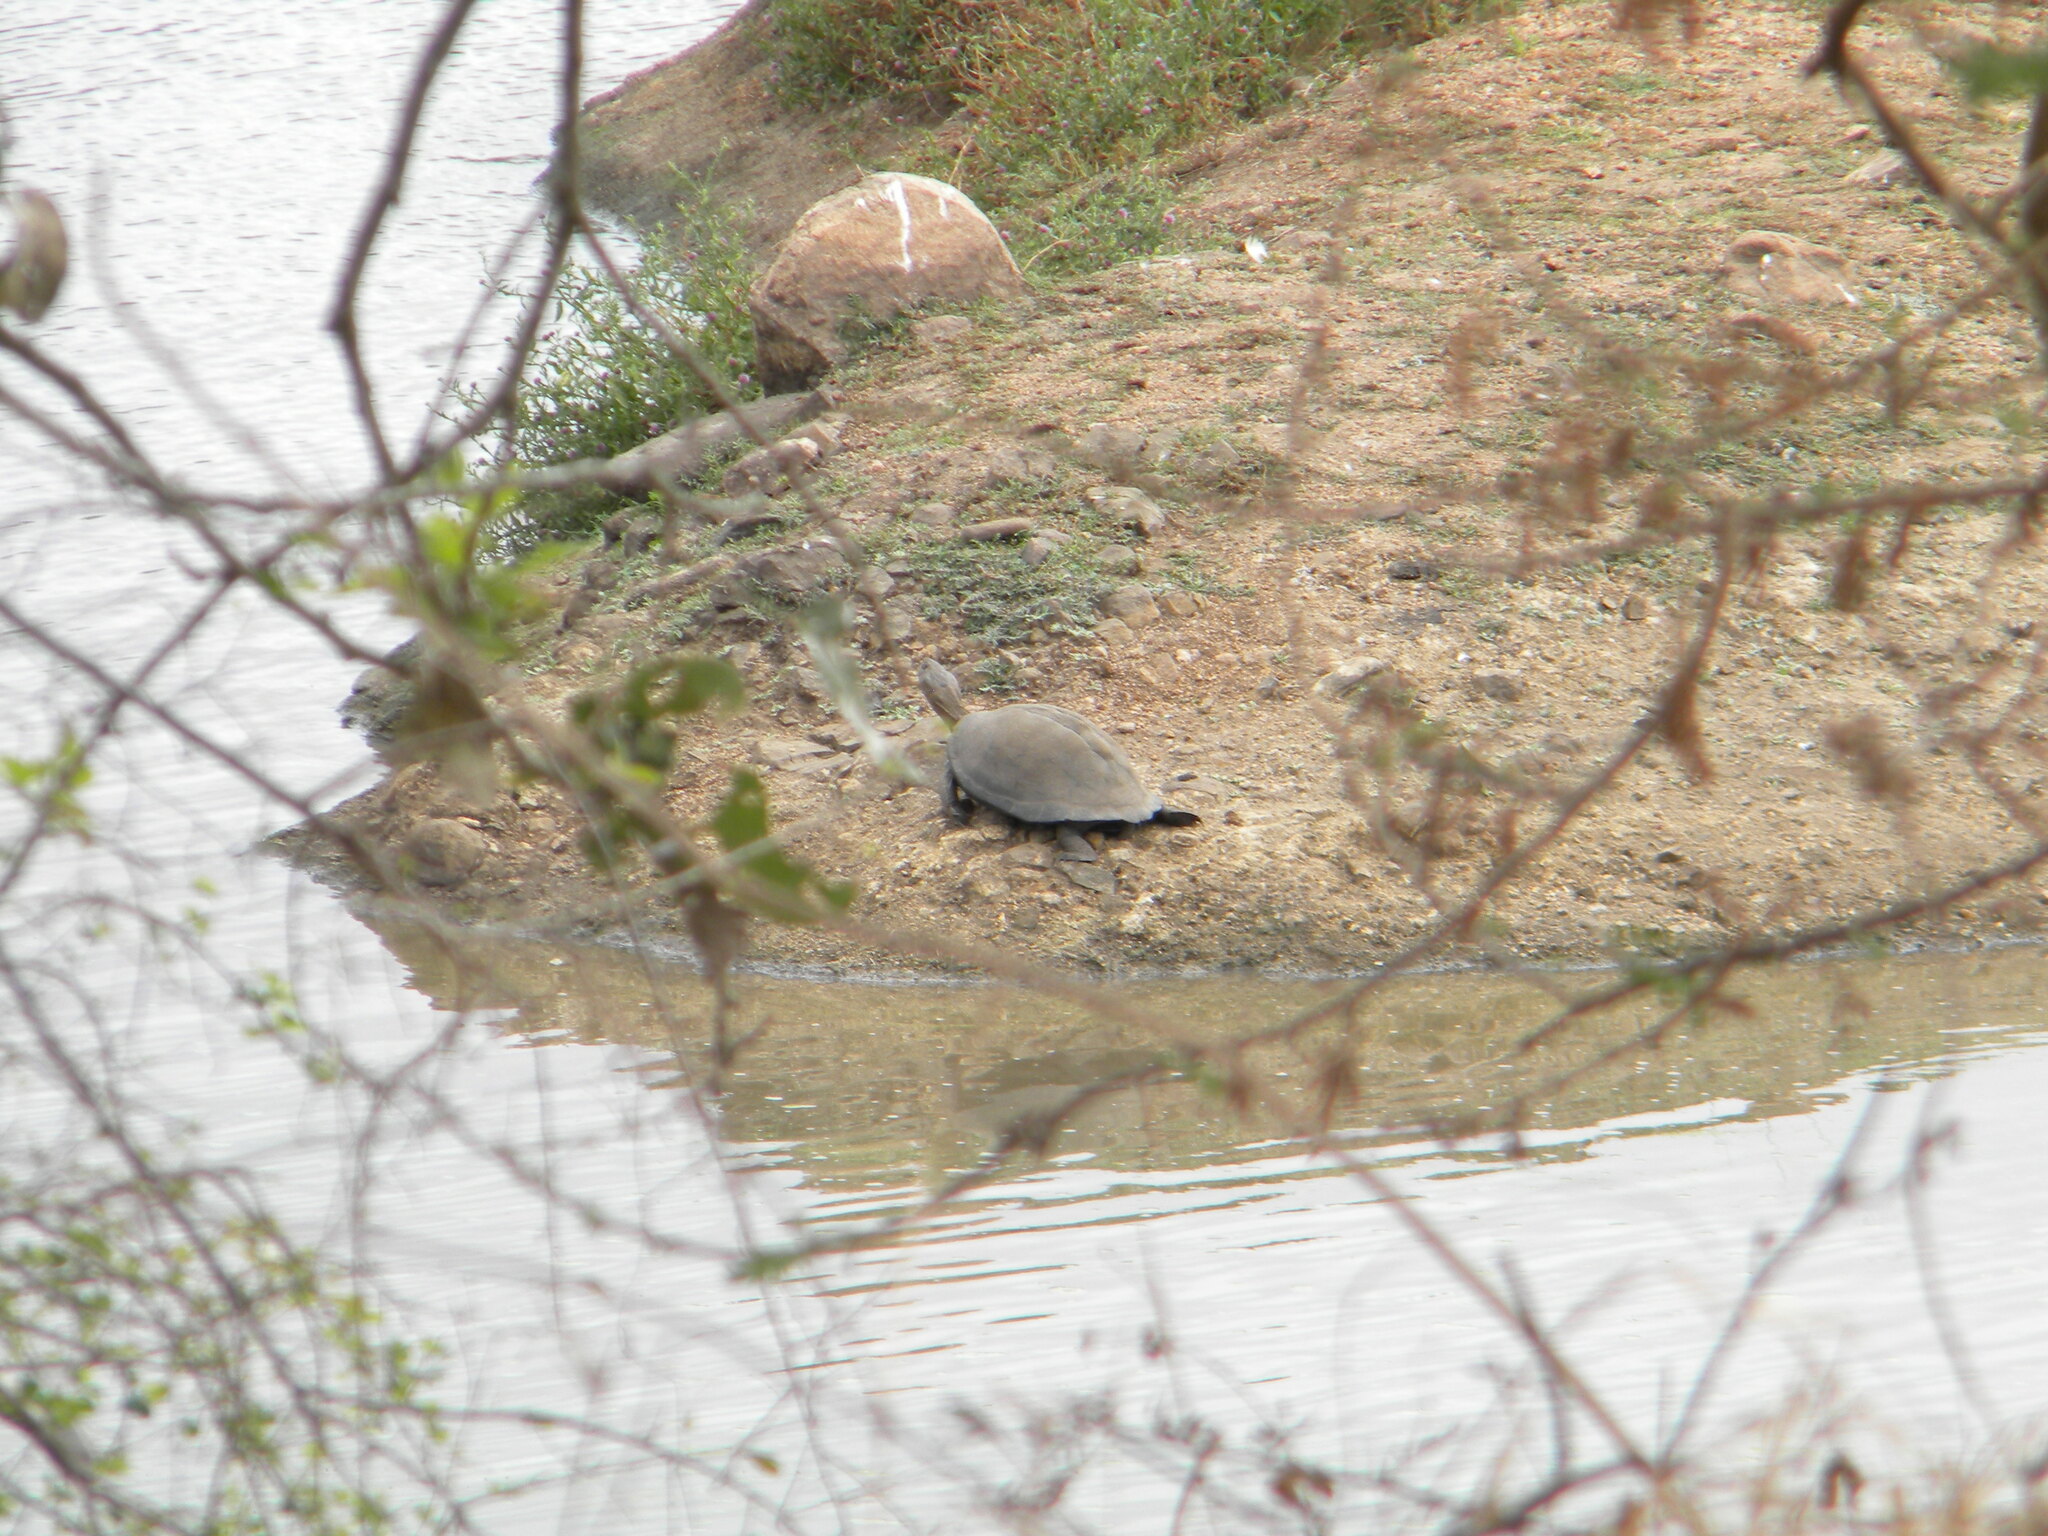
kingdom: Animalia
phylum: Chordata
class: Testudines
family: Pelomedusidae
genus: Pelusios
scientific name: Pelusios sinuatus
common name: Serrated hinged terrapin
